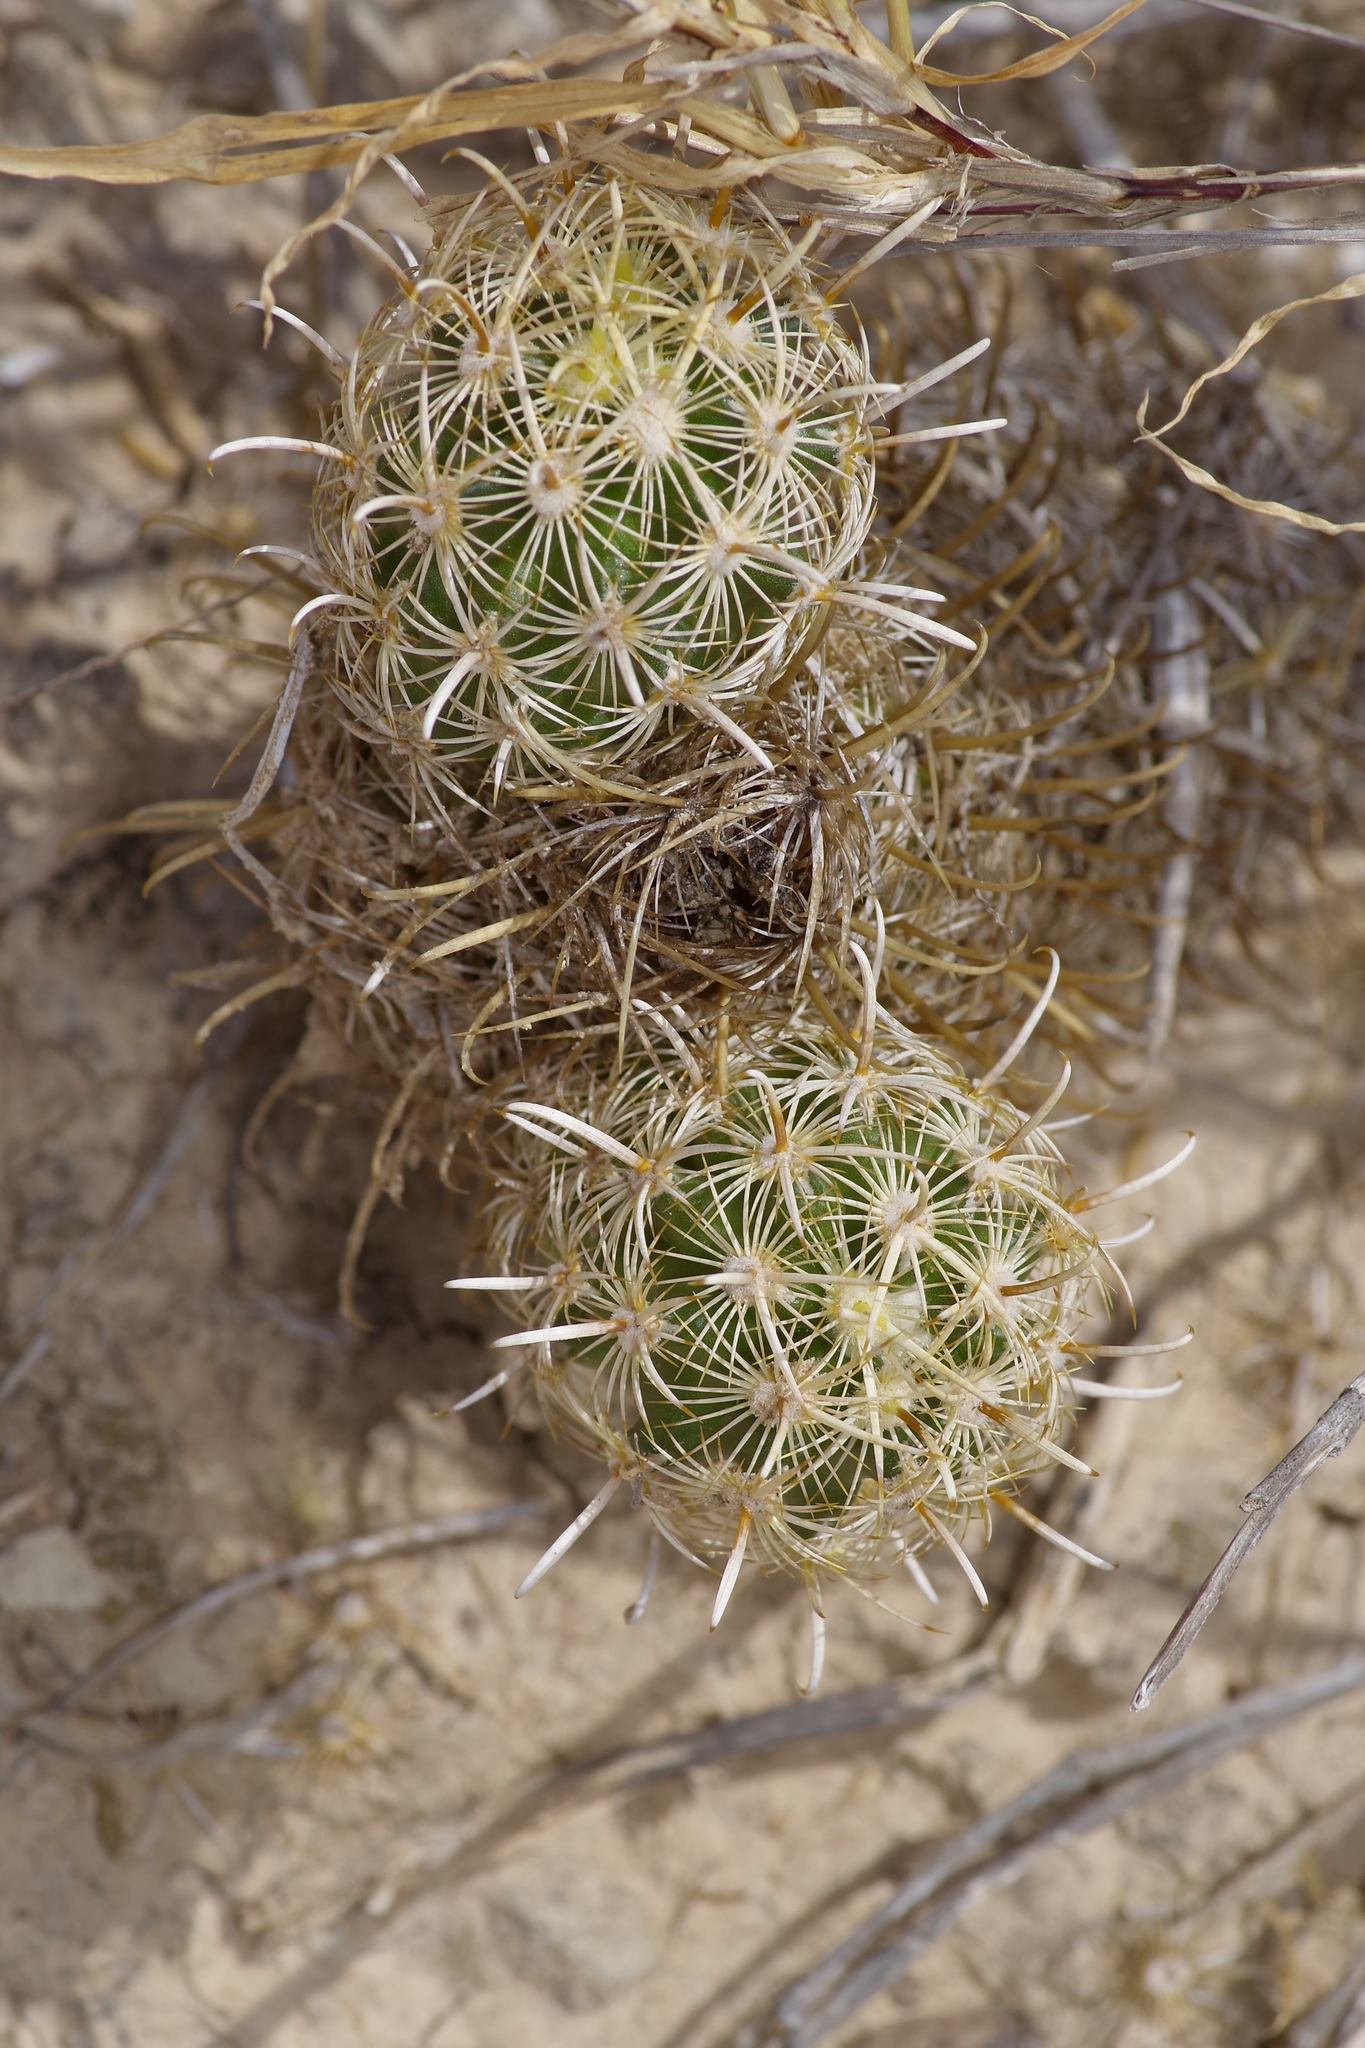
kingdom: Plantae
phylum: Tracheophyta
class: Magnoliopsida
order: Caryophyllales
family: Cactaceae
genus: Sclerocactus
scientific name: Sclerocactus scheerii
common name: Scheer's fish-hook cactus
